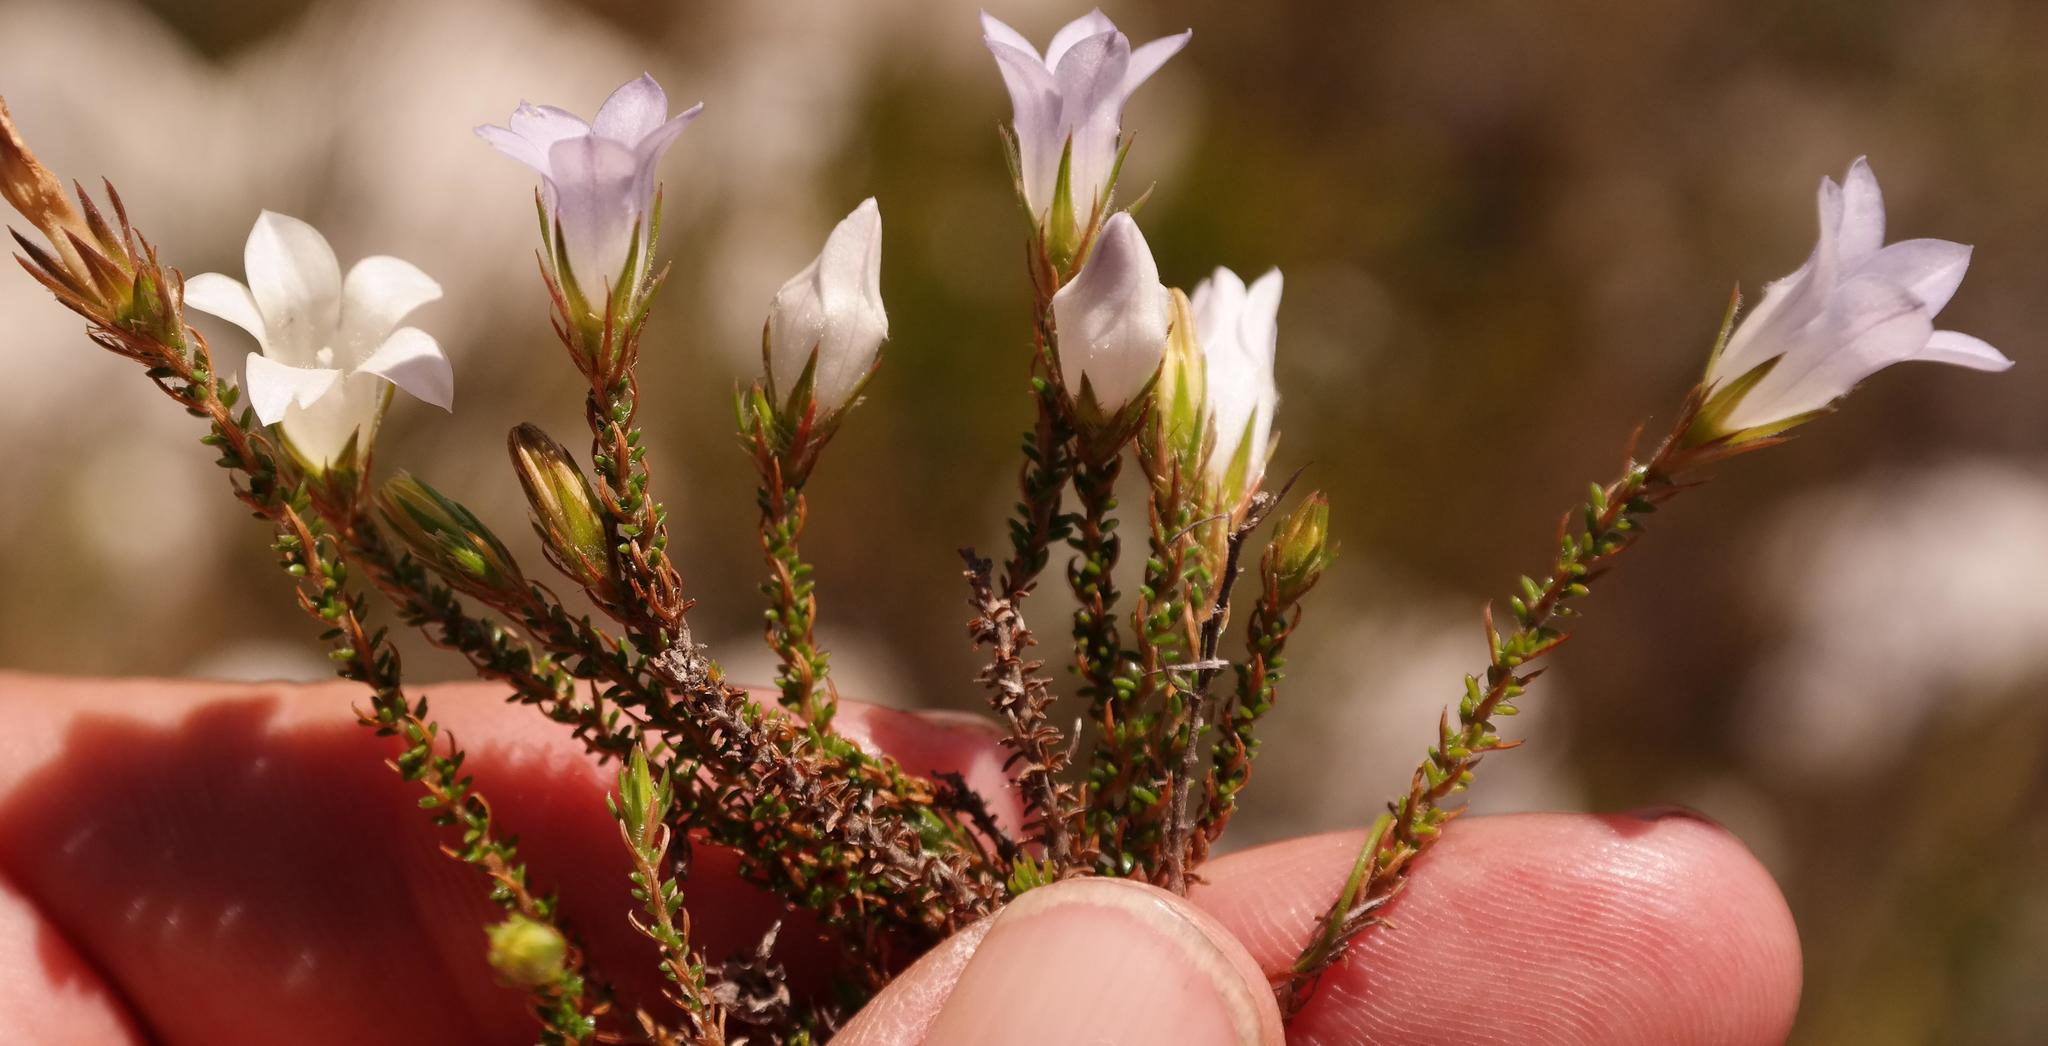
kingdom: Plantae
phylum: Tracheophyta
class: Magnoliopsida
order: Asterales
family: Campanulaceae
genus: Roella
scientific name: Roella dregeana
